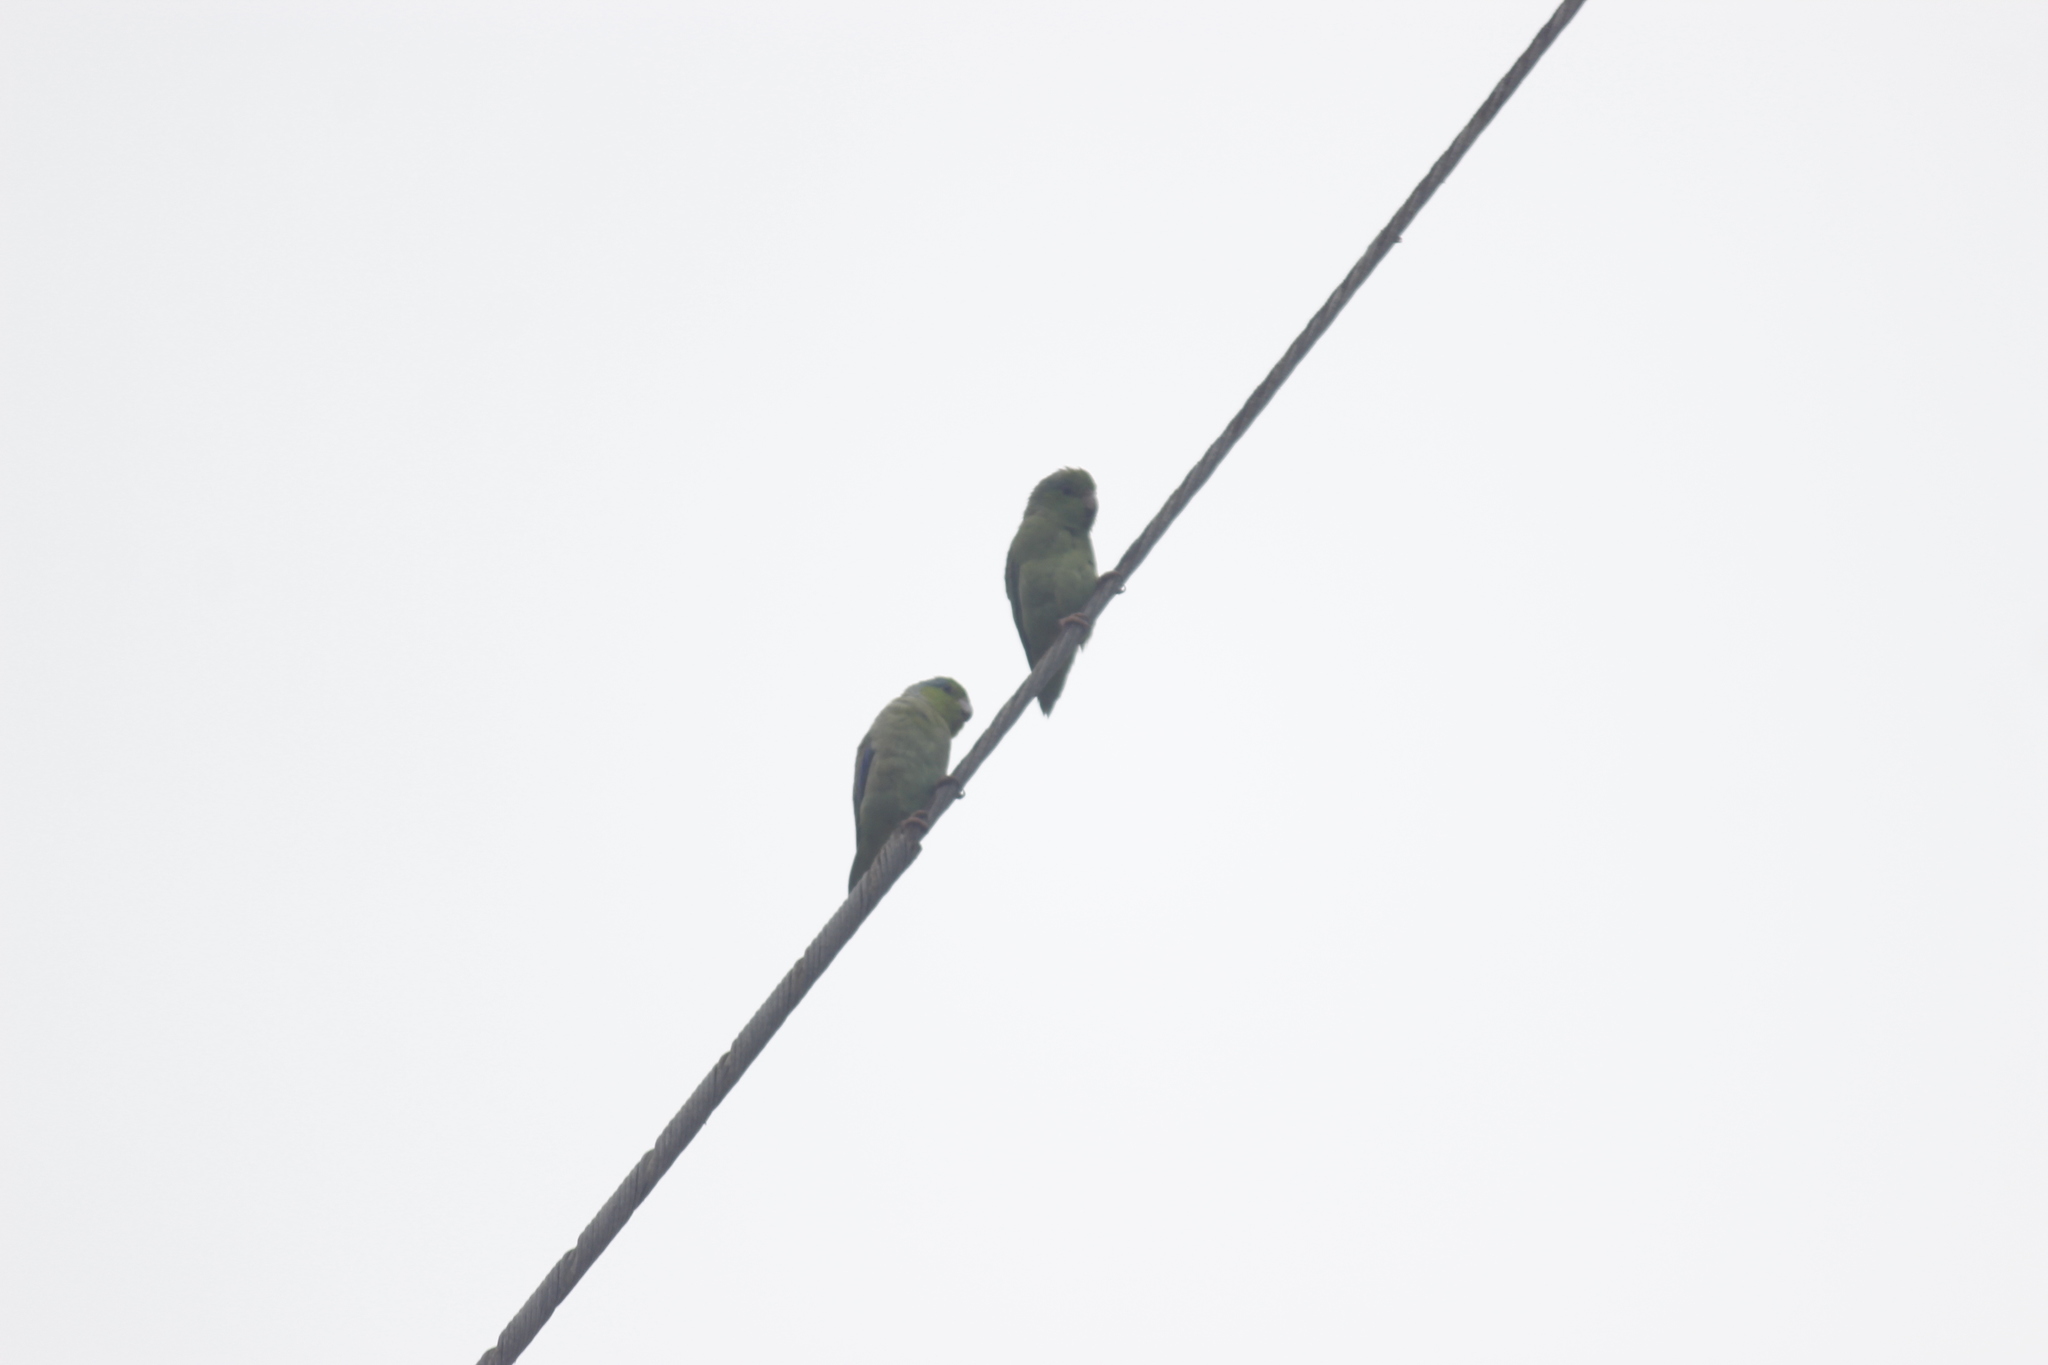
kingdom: Animalia
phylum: Chordata
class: Aves
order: Psittaciformes
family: Psittacidae
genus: Forpus
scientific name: Forpus coelestis
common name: Pacific parrotlet
